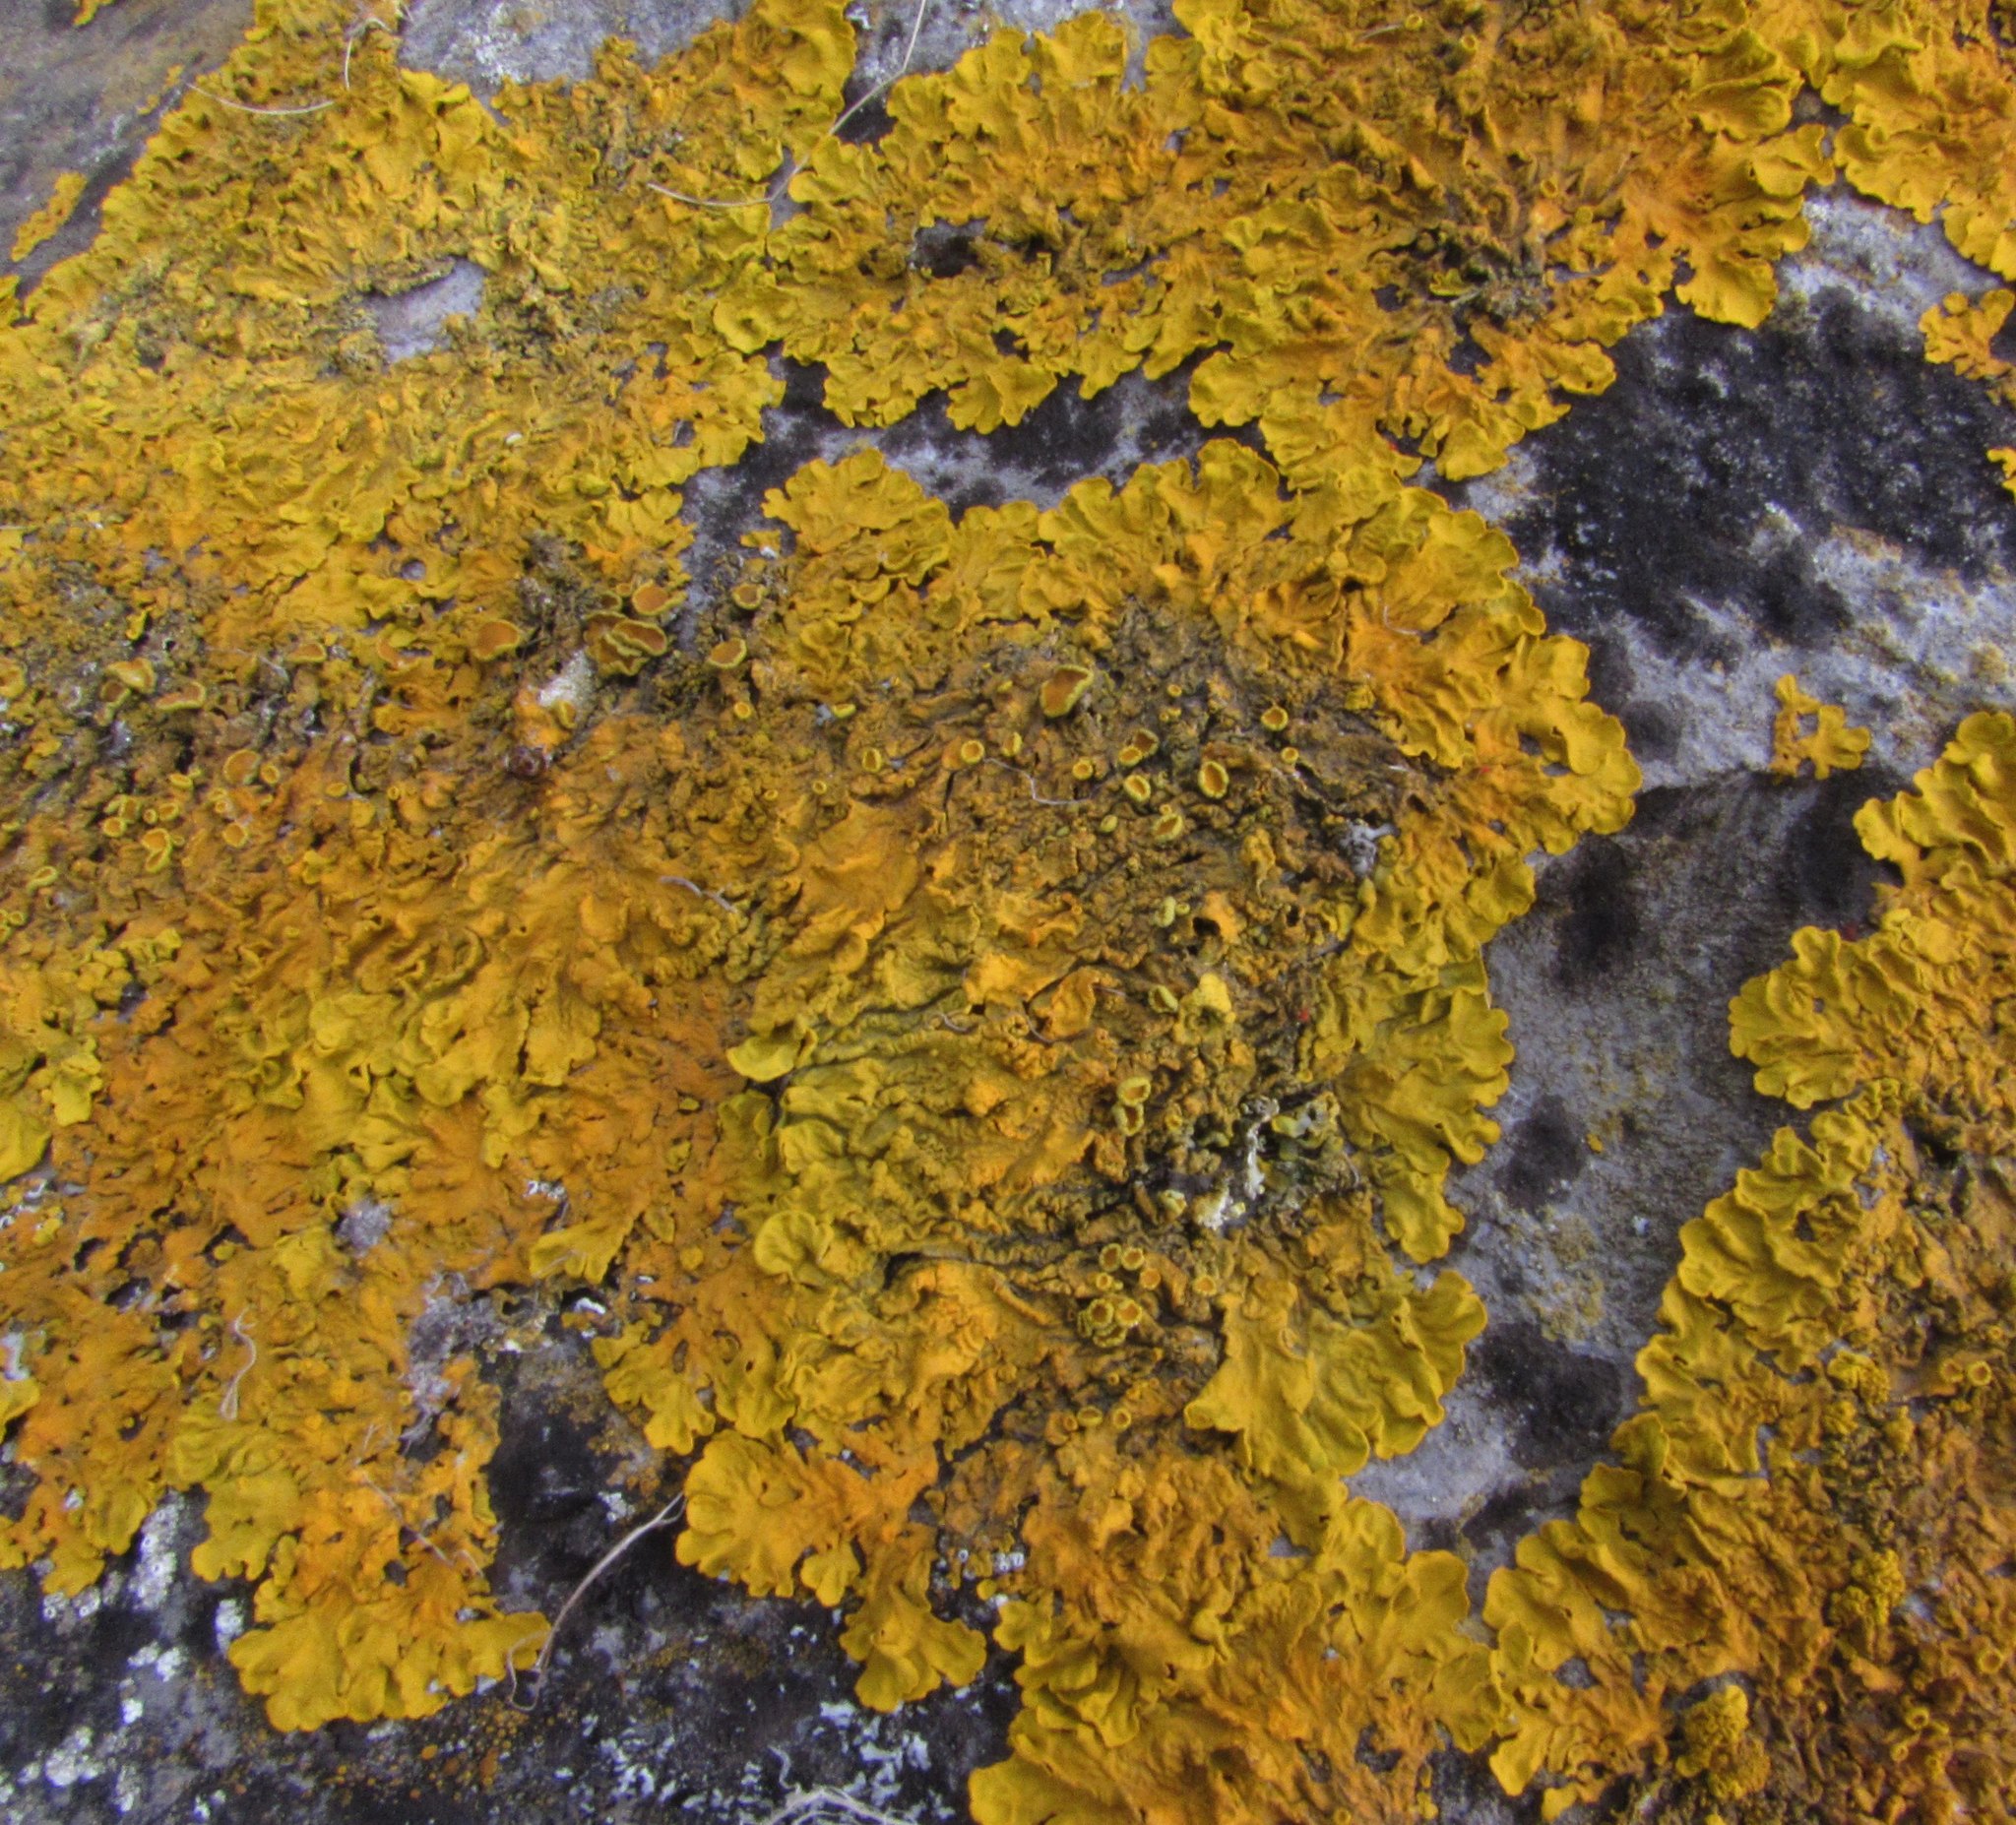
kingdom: Fungi
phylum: Ascomycota
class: Lecanoromycetes
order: Teloschistales
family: Teloschistaceae
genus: Xanthoria
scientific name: Xanthoria calcicola
